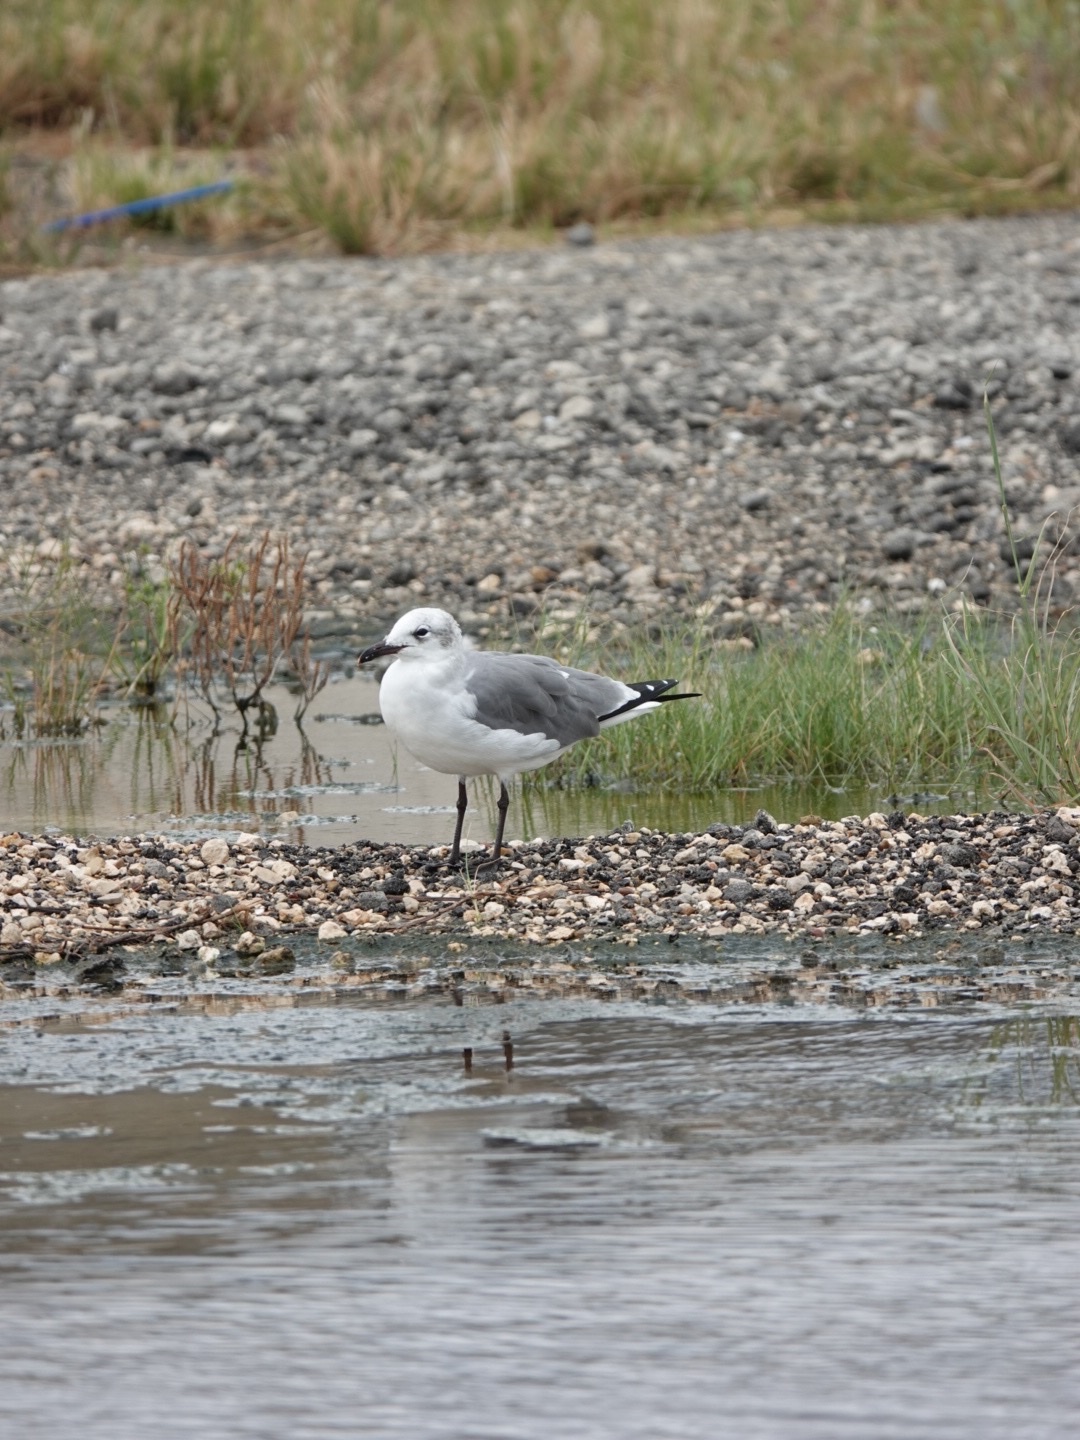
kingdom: Animalia
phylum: Chordata
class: Aves
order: Charadriiformes
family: Laridae
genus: Leucophaeus
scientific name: Leucophaeus atricilla
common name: Laughing gull
